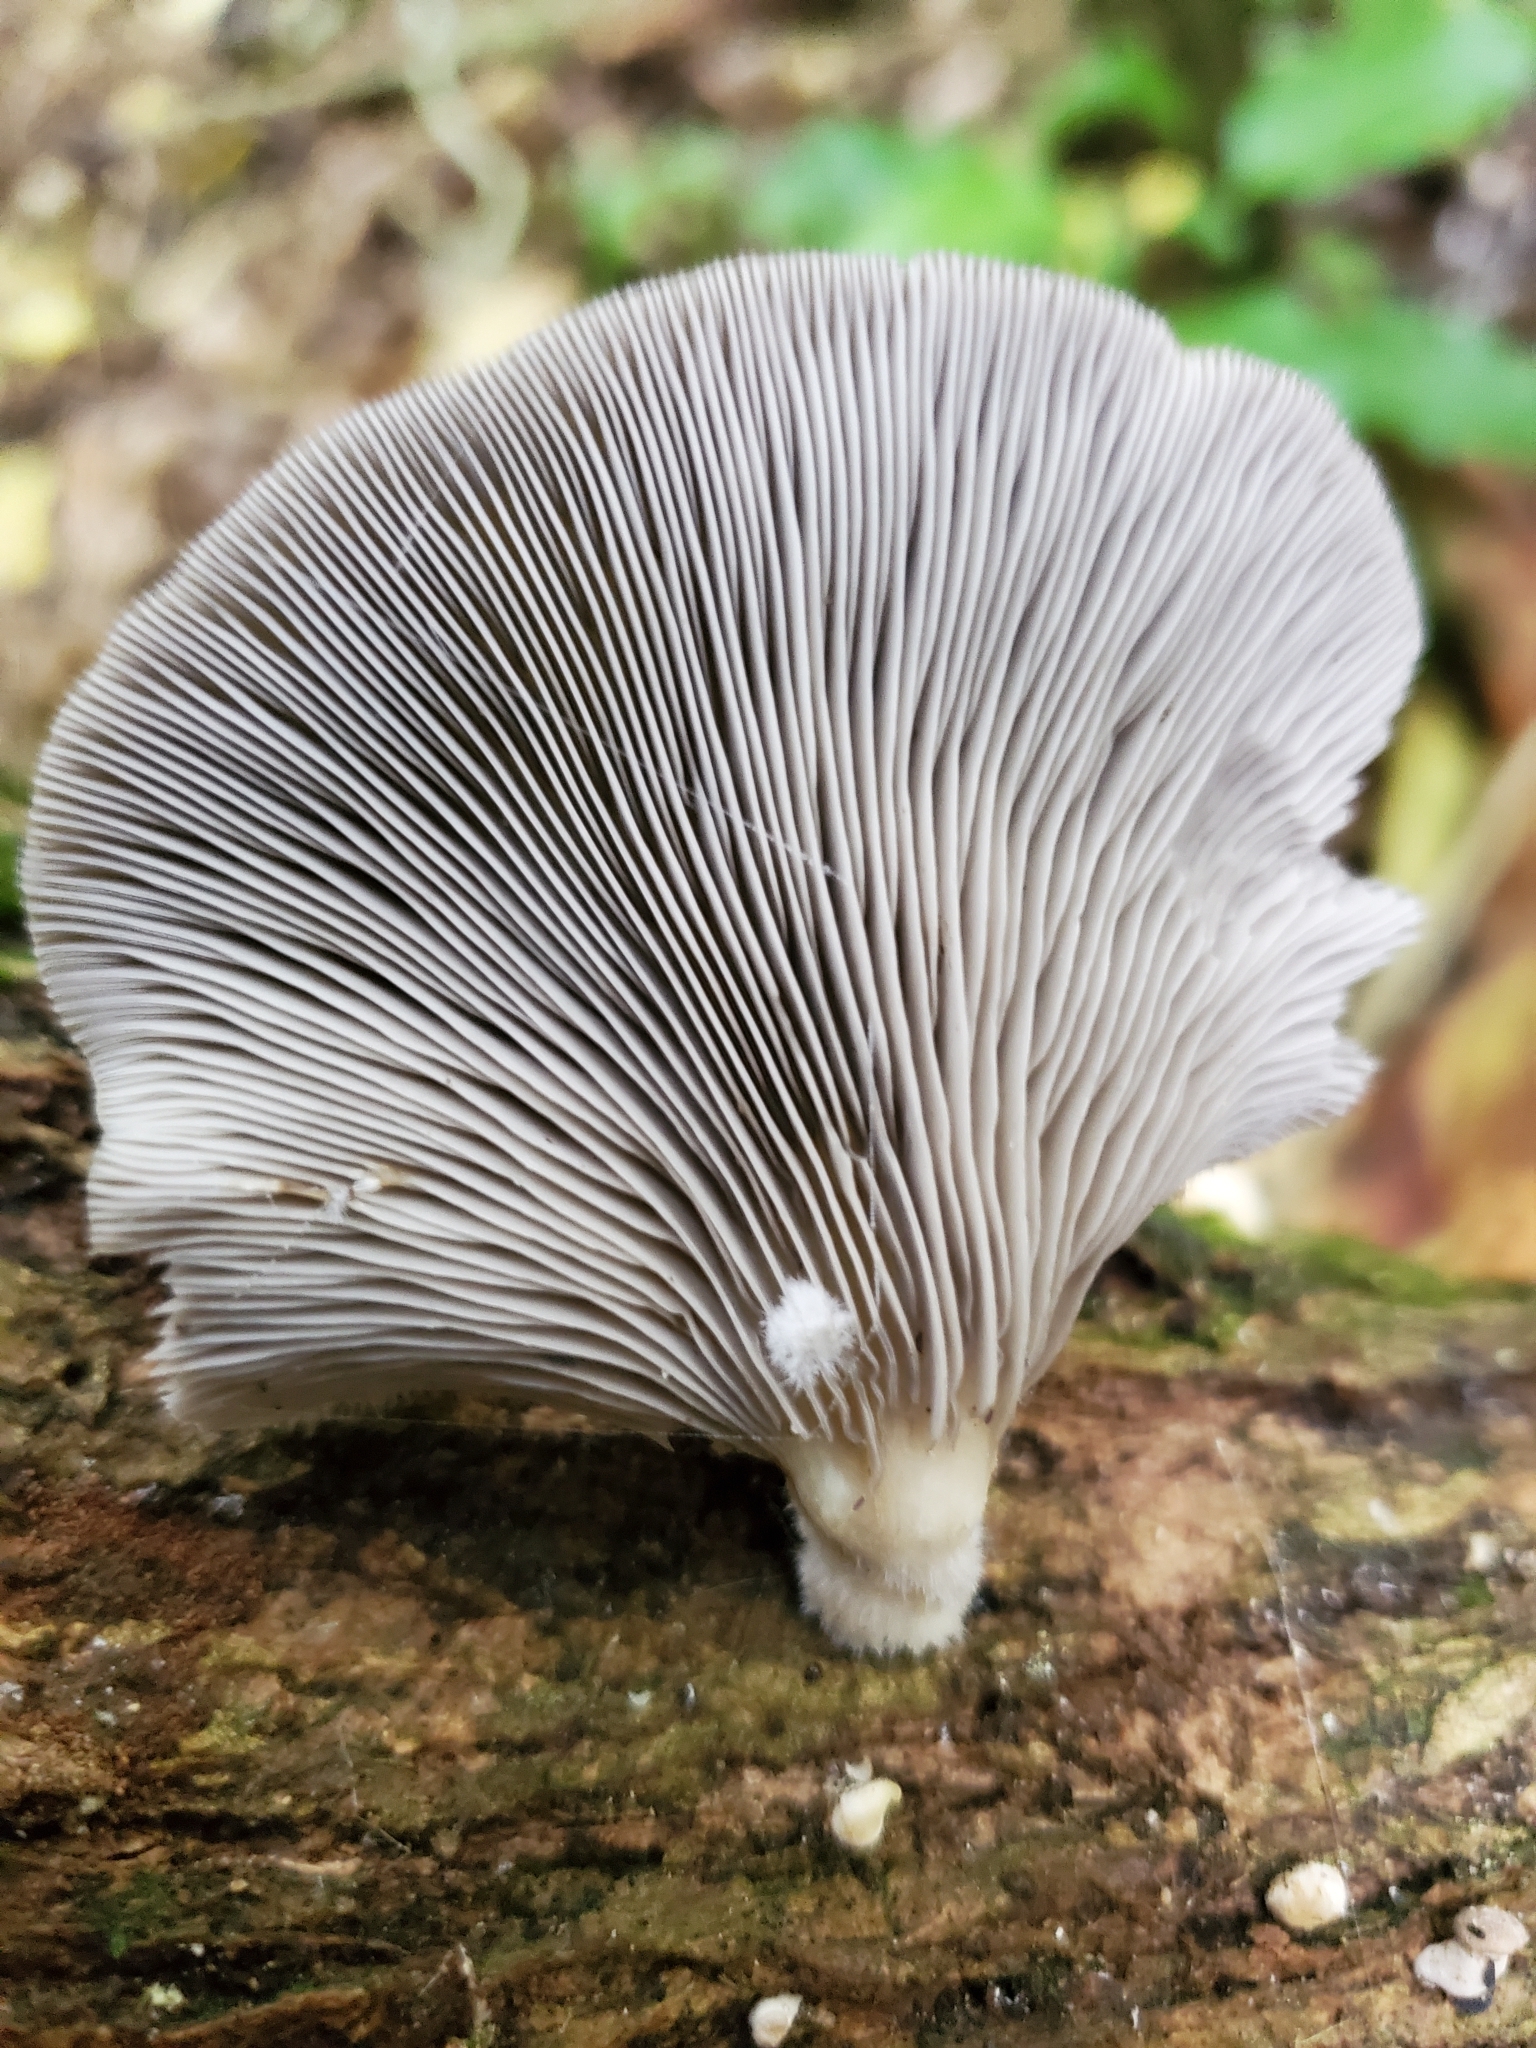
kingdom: Fungi
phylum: Basidiomycota
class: Agaricomycetes
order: Agaricales
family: Pleurotaceae
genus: Pleurotus
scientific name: Pleurotus purpureo-olivaceus
